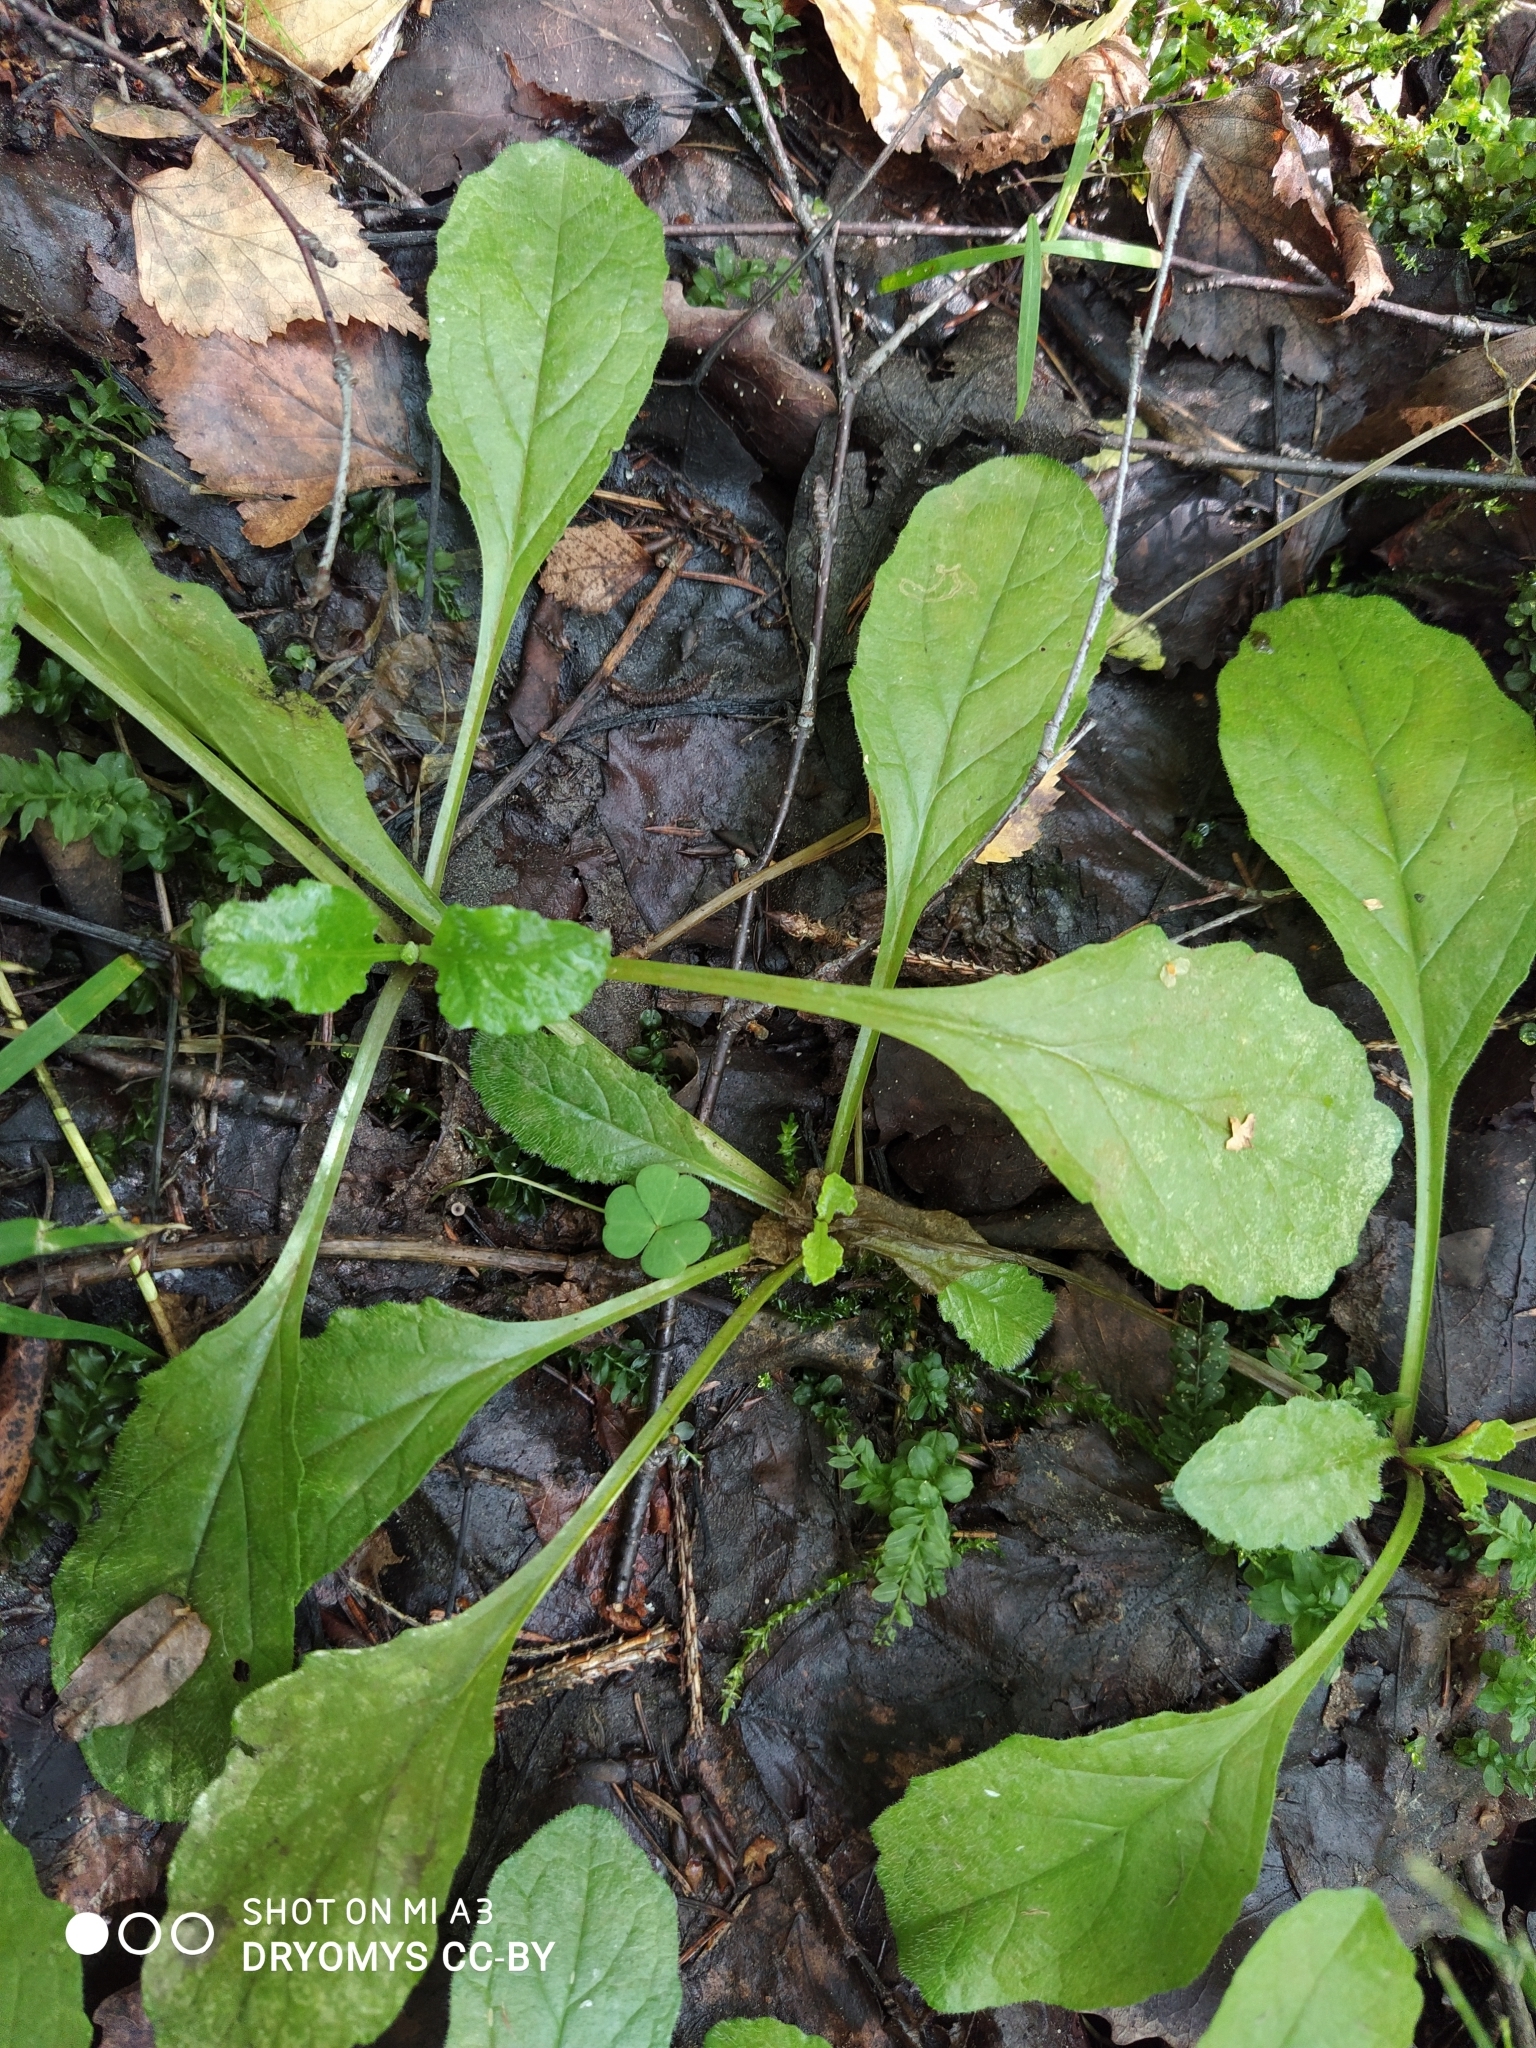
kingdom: Plantae
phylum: Tracheophyta
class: Magnoliopsida
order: Lamiales
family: Lamiaceae
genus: Ajuga
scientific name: Ajuga reptans
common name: Bugle
